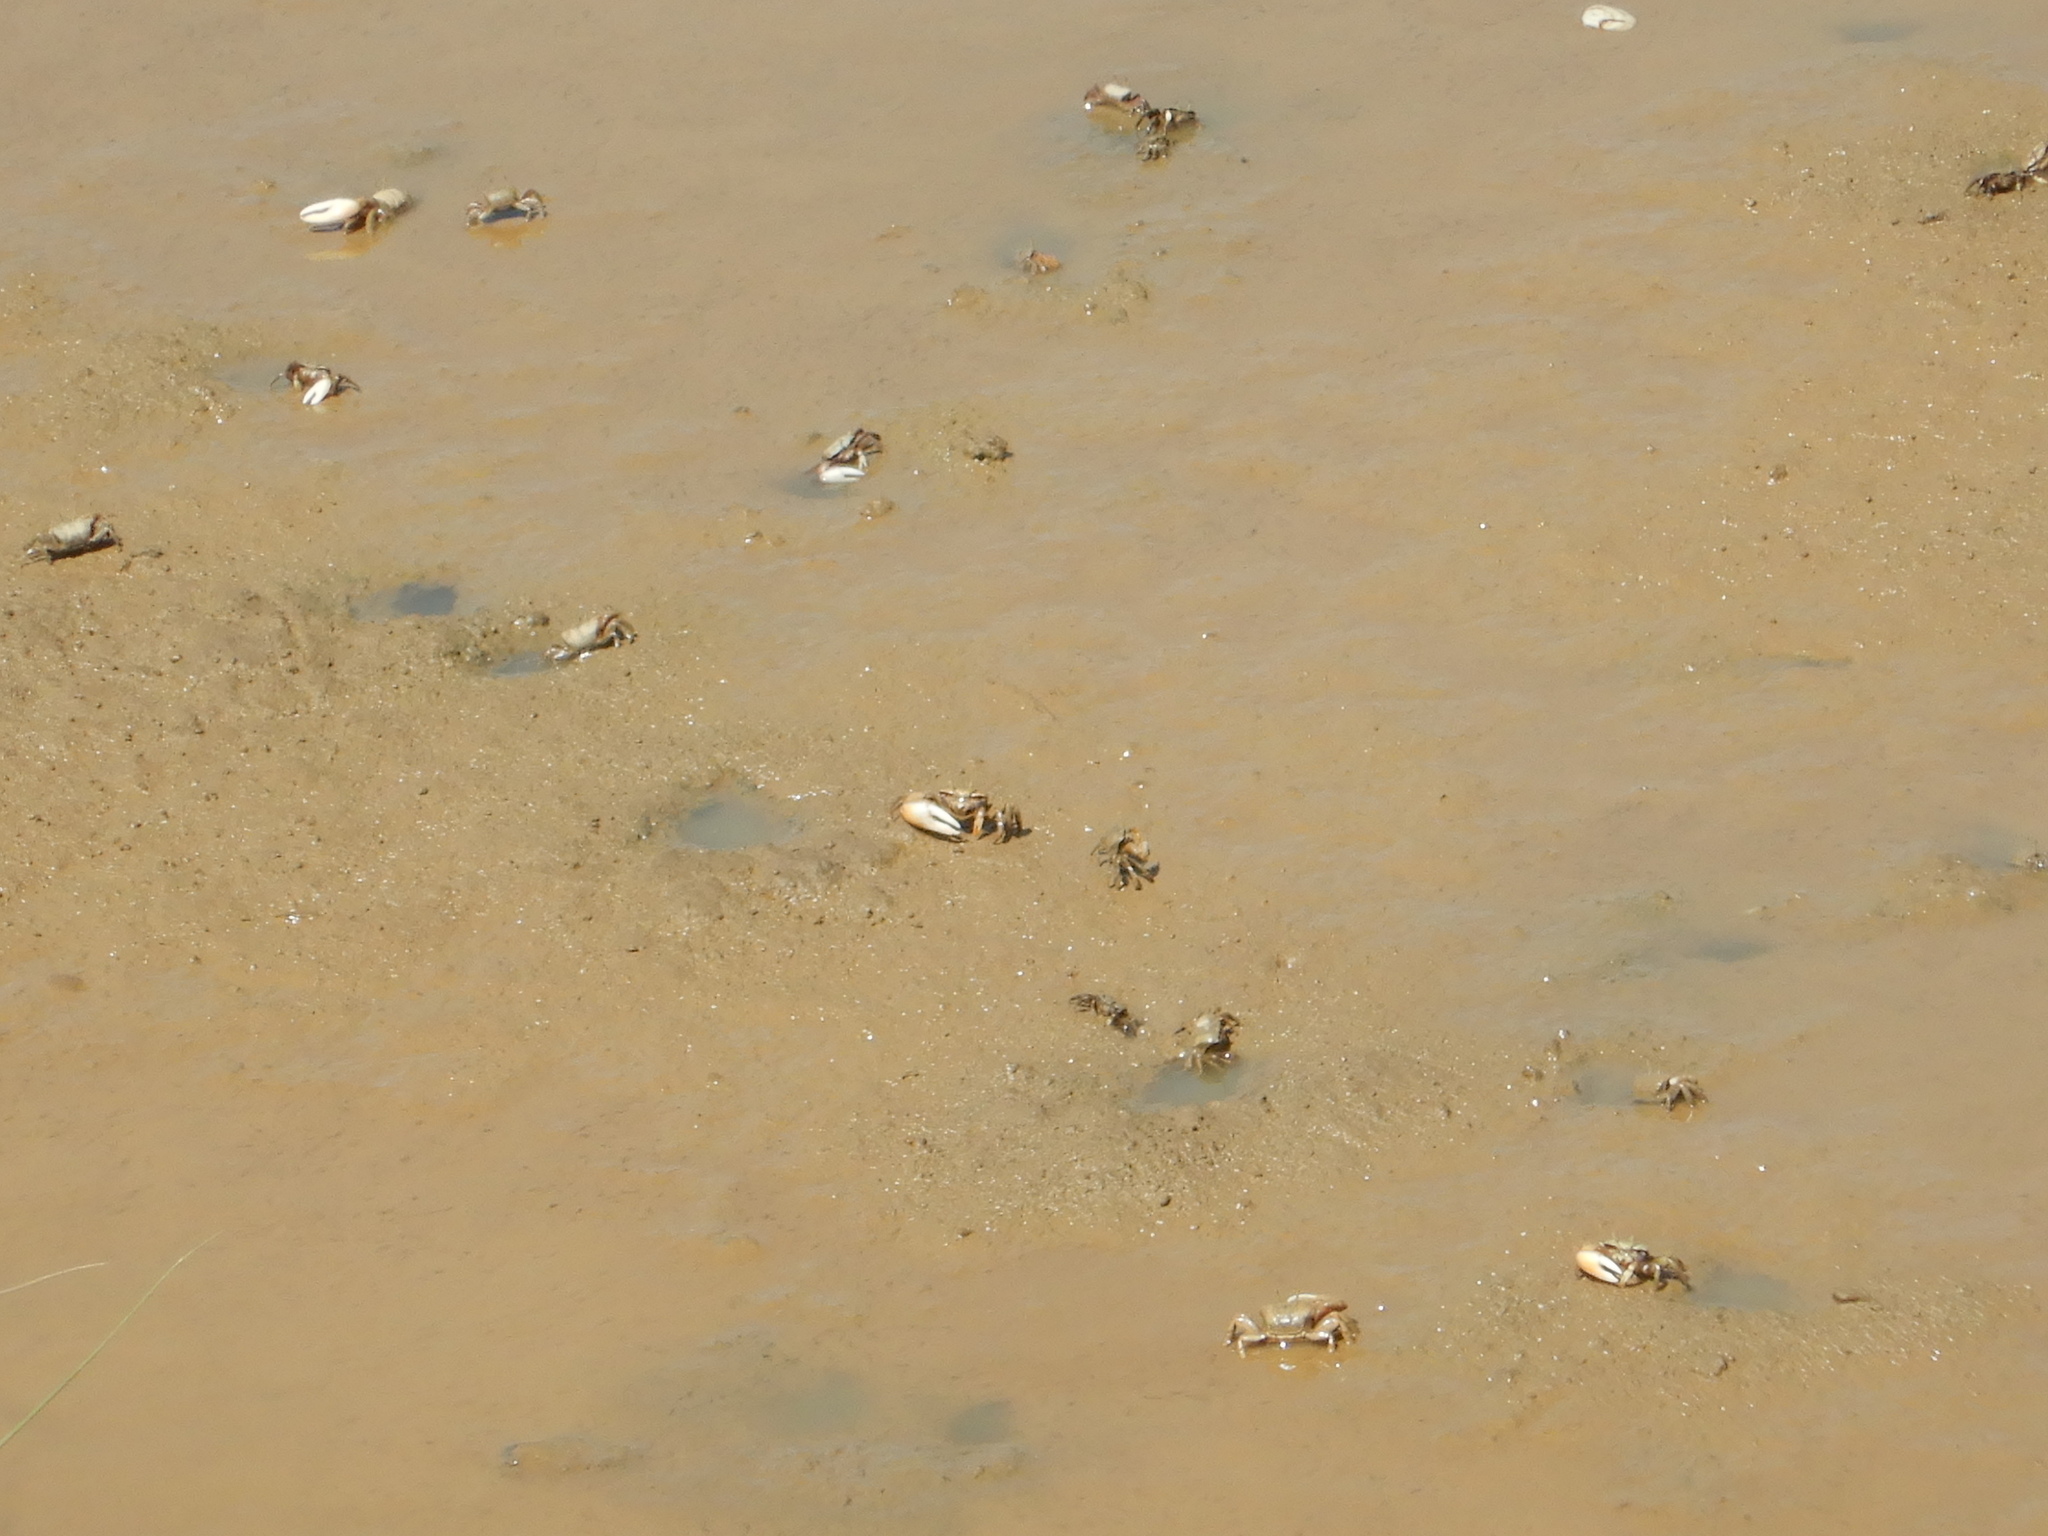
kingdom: Animalia
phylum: Arthropoda
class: Malacostraca
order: Decapoda
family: Ocypodidae
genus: Afruca
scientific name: Afruca tangeri
